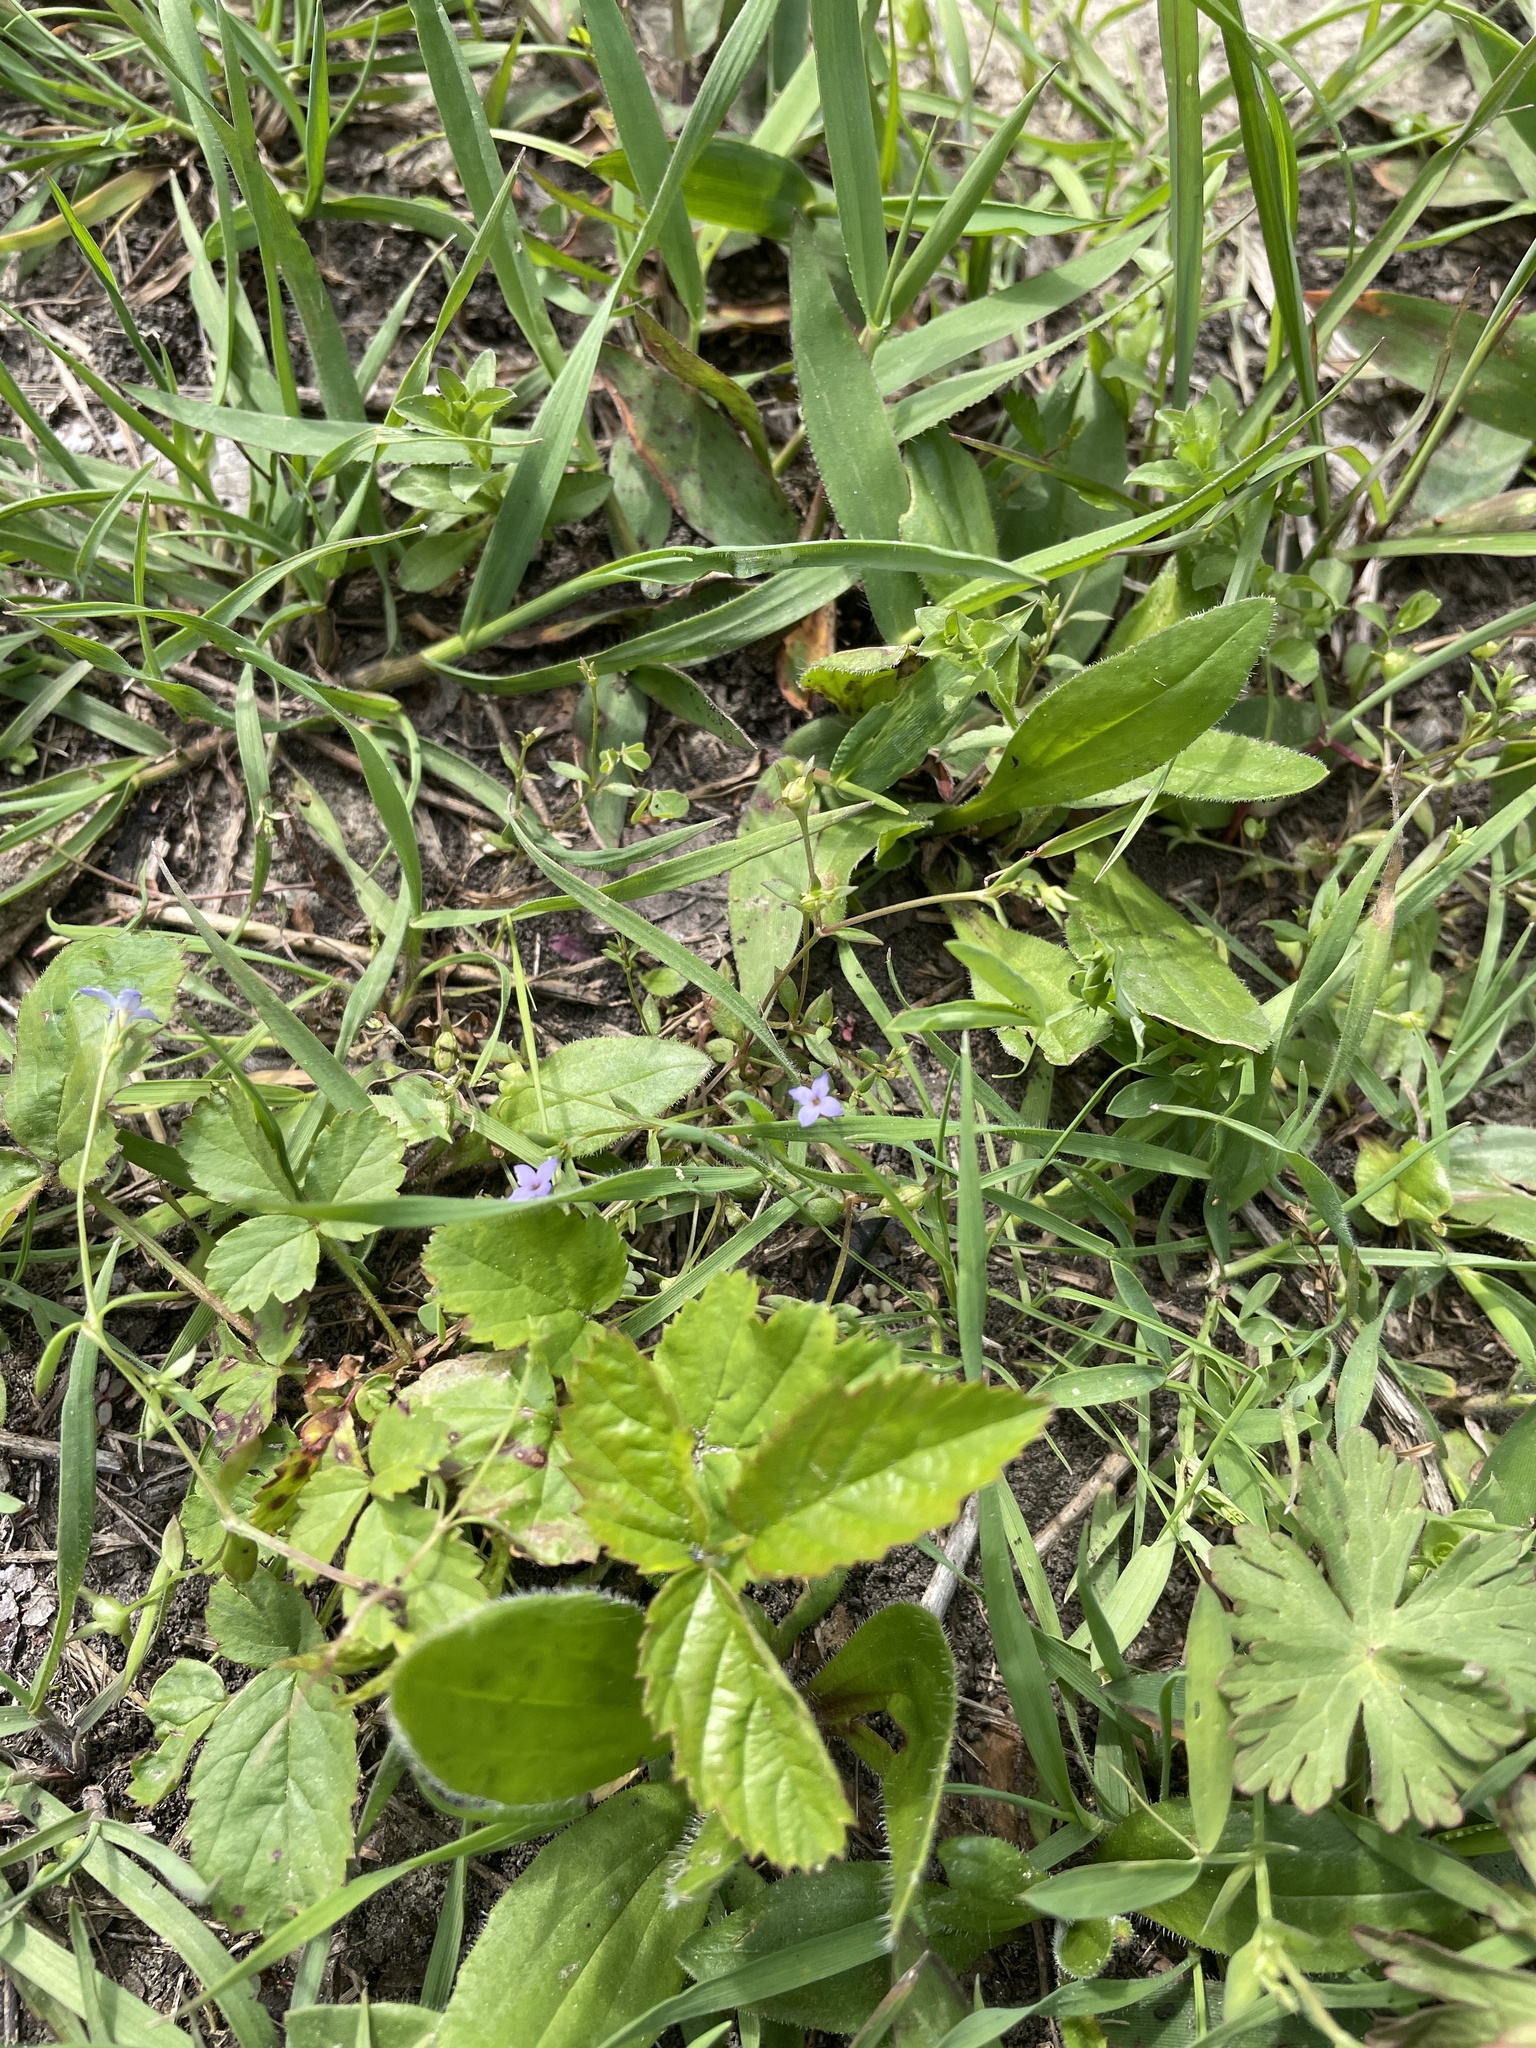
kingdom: Plantae
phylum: Tracheophyta
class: Magnoliopsida
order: Gentianales
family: Rubiaceae
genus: Houstonia
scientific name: Houstonia pusilla
